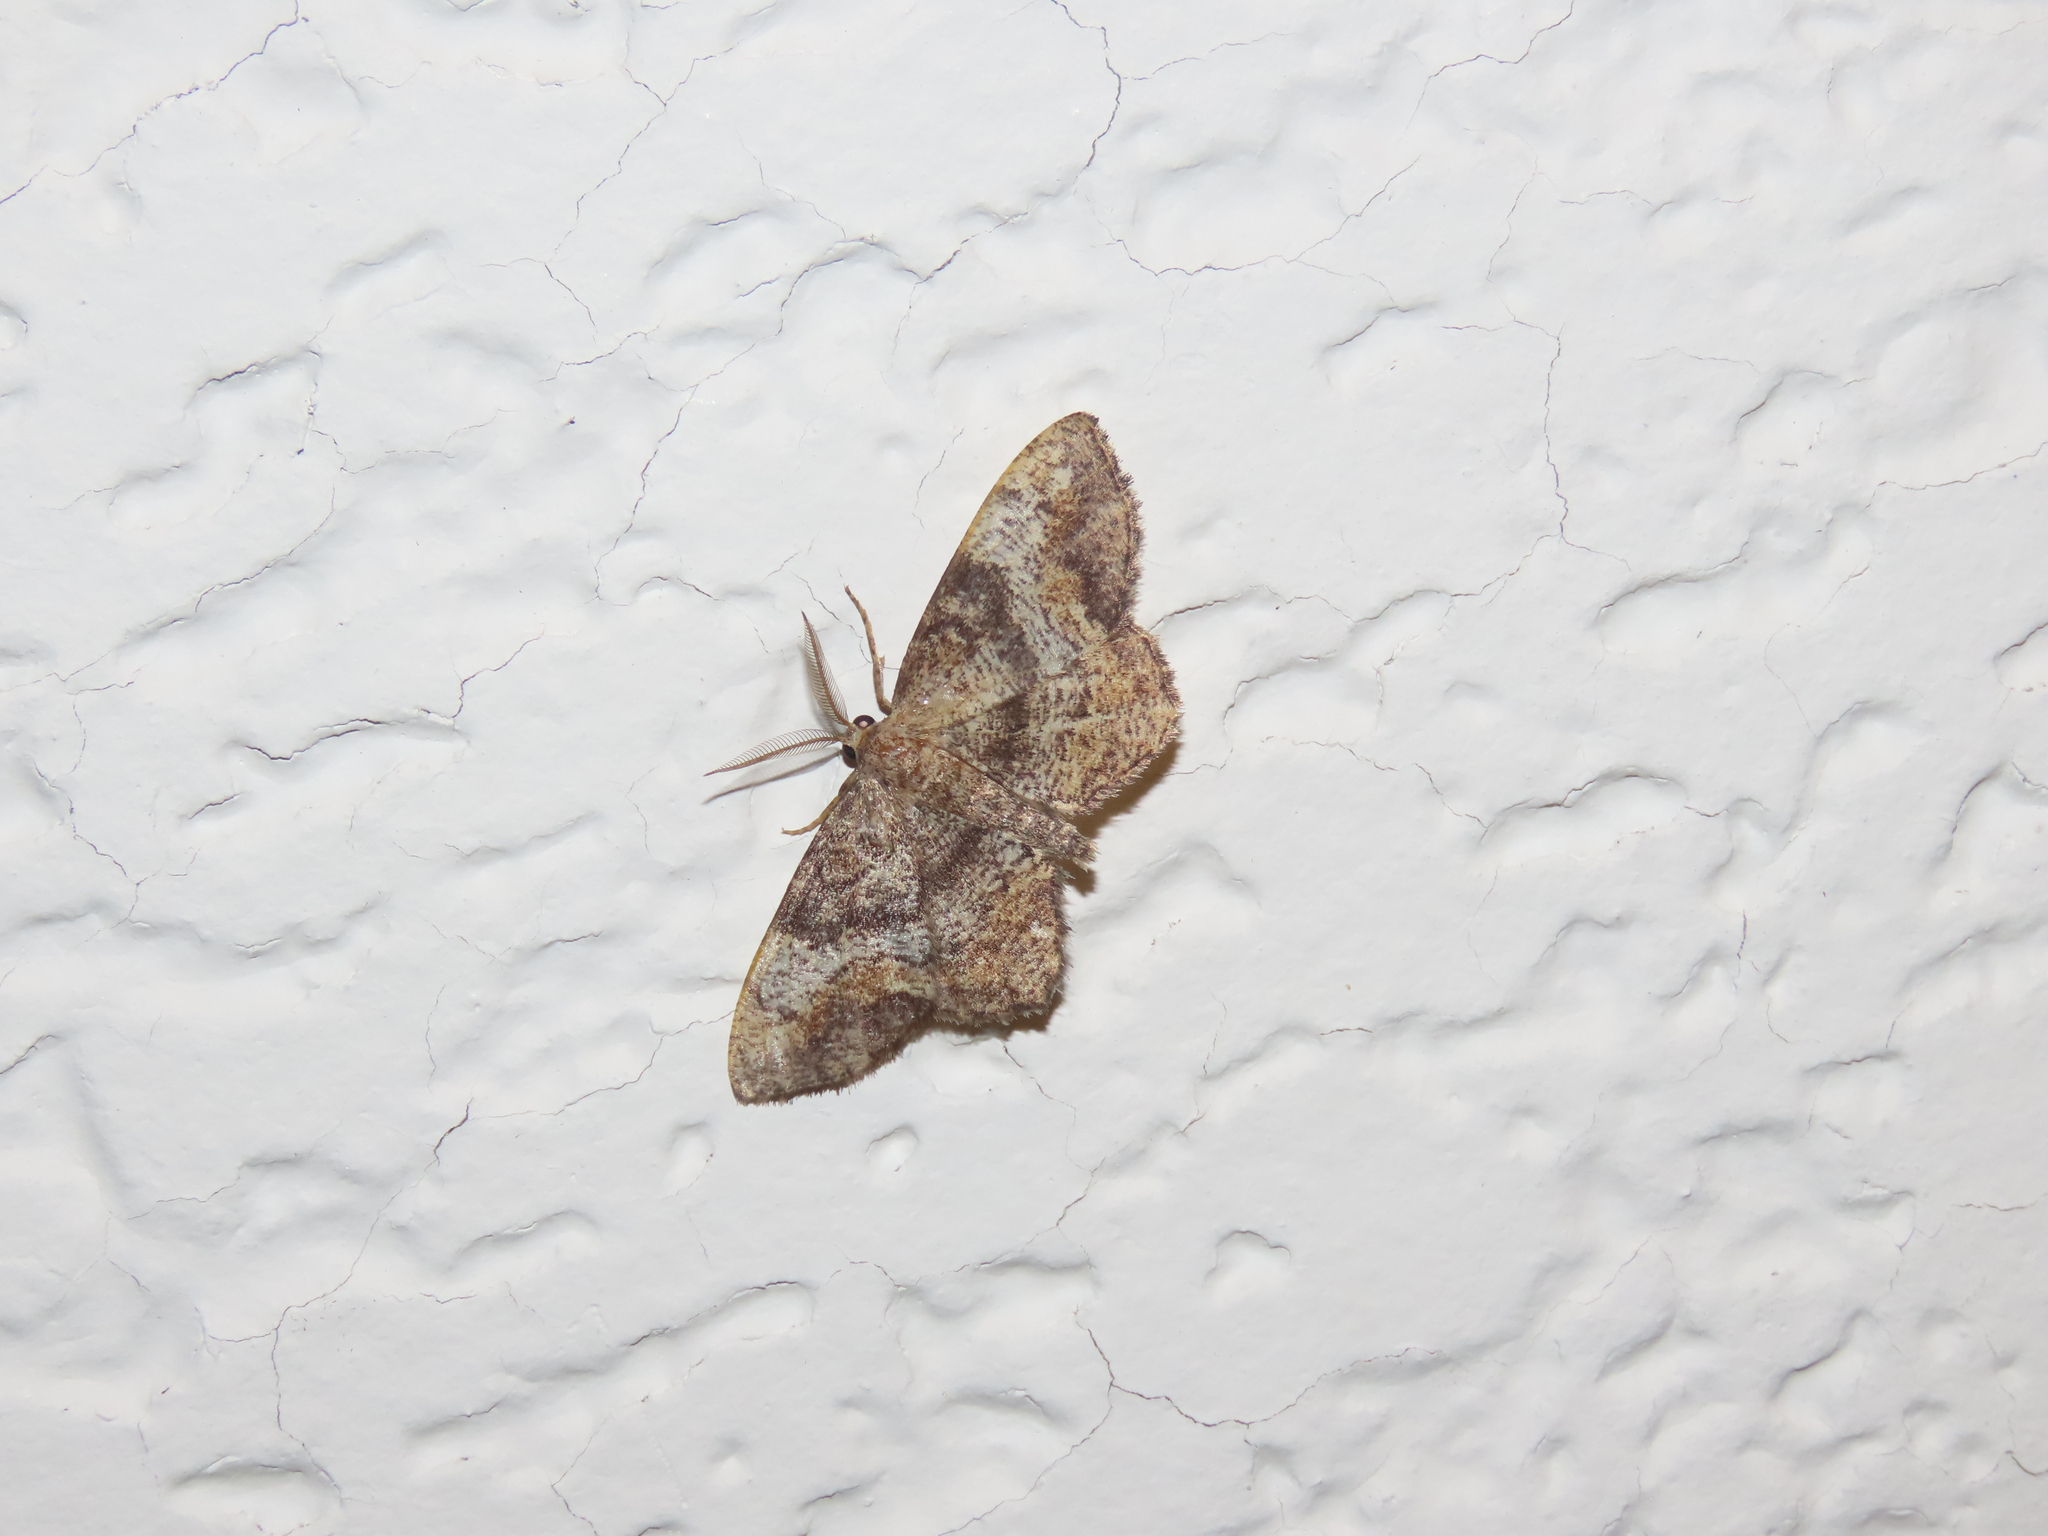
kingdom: Animalia
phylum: Arthropoda
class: Insecta
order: Lepidoptera
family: Geometridae
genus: Hypagyrtis
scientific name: Hypagyrtis unipunctata
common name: One-spotted variant
